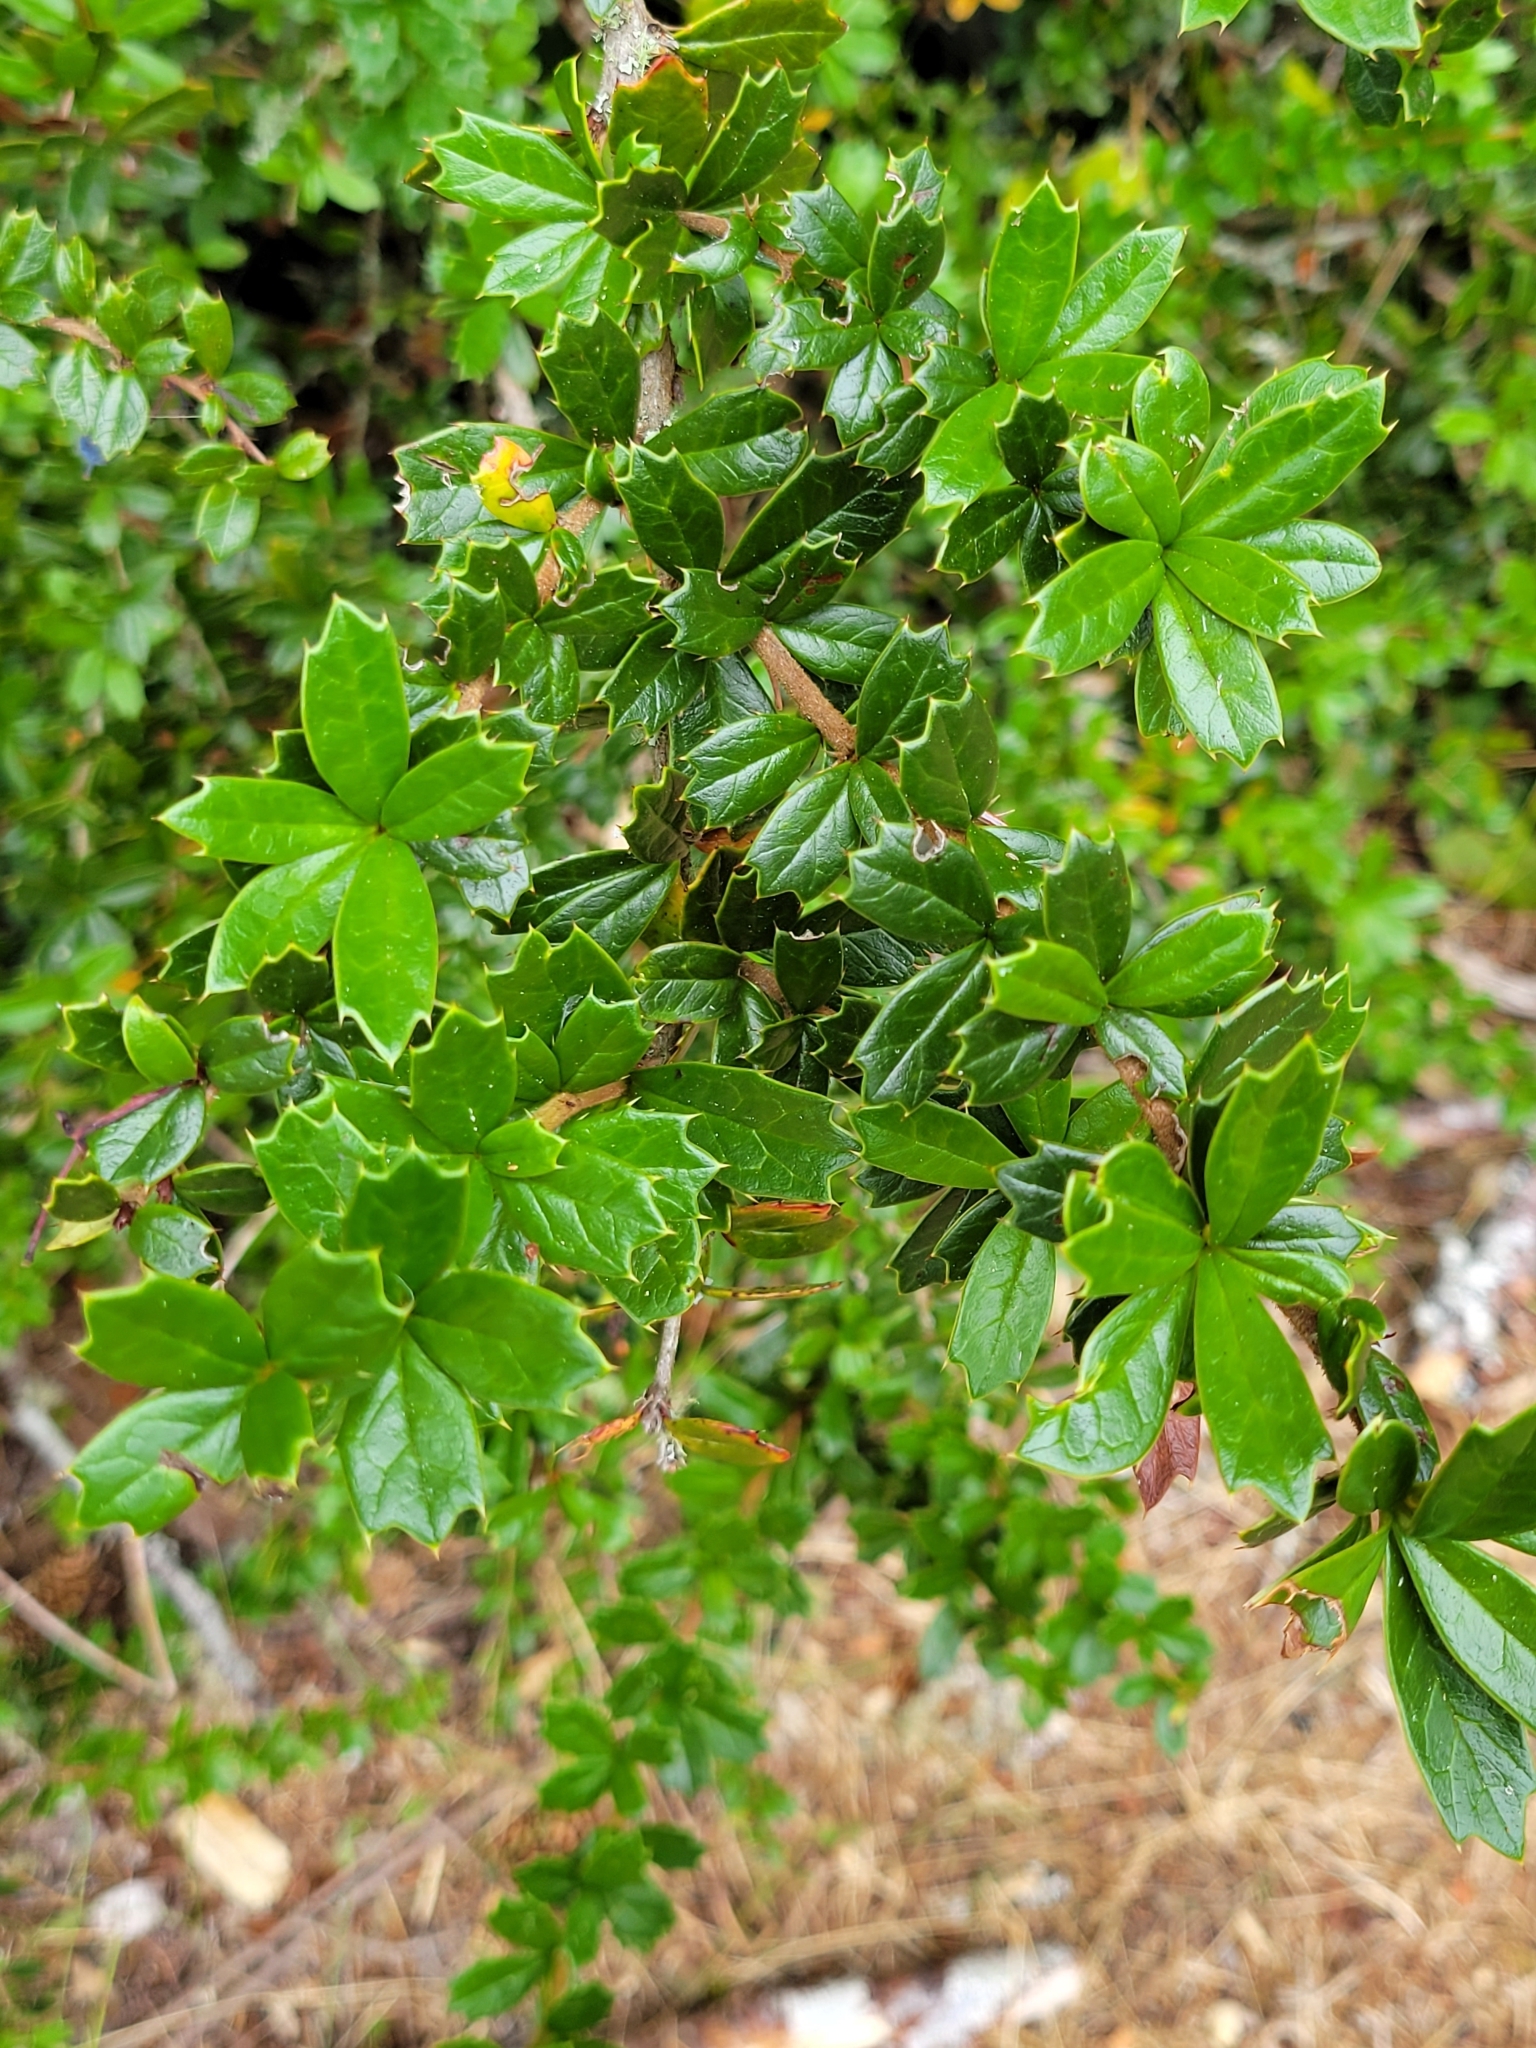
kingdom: Plantae
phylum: Tracheophyta
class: Magnoliopsida
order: Ranunculales
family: Berberidaceae
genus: Berberis
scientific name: Berberis darwinii
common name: Darwin's barberry
